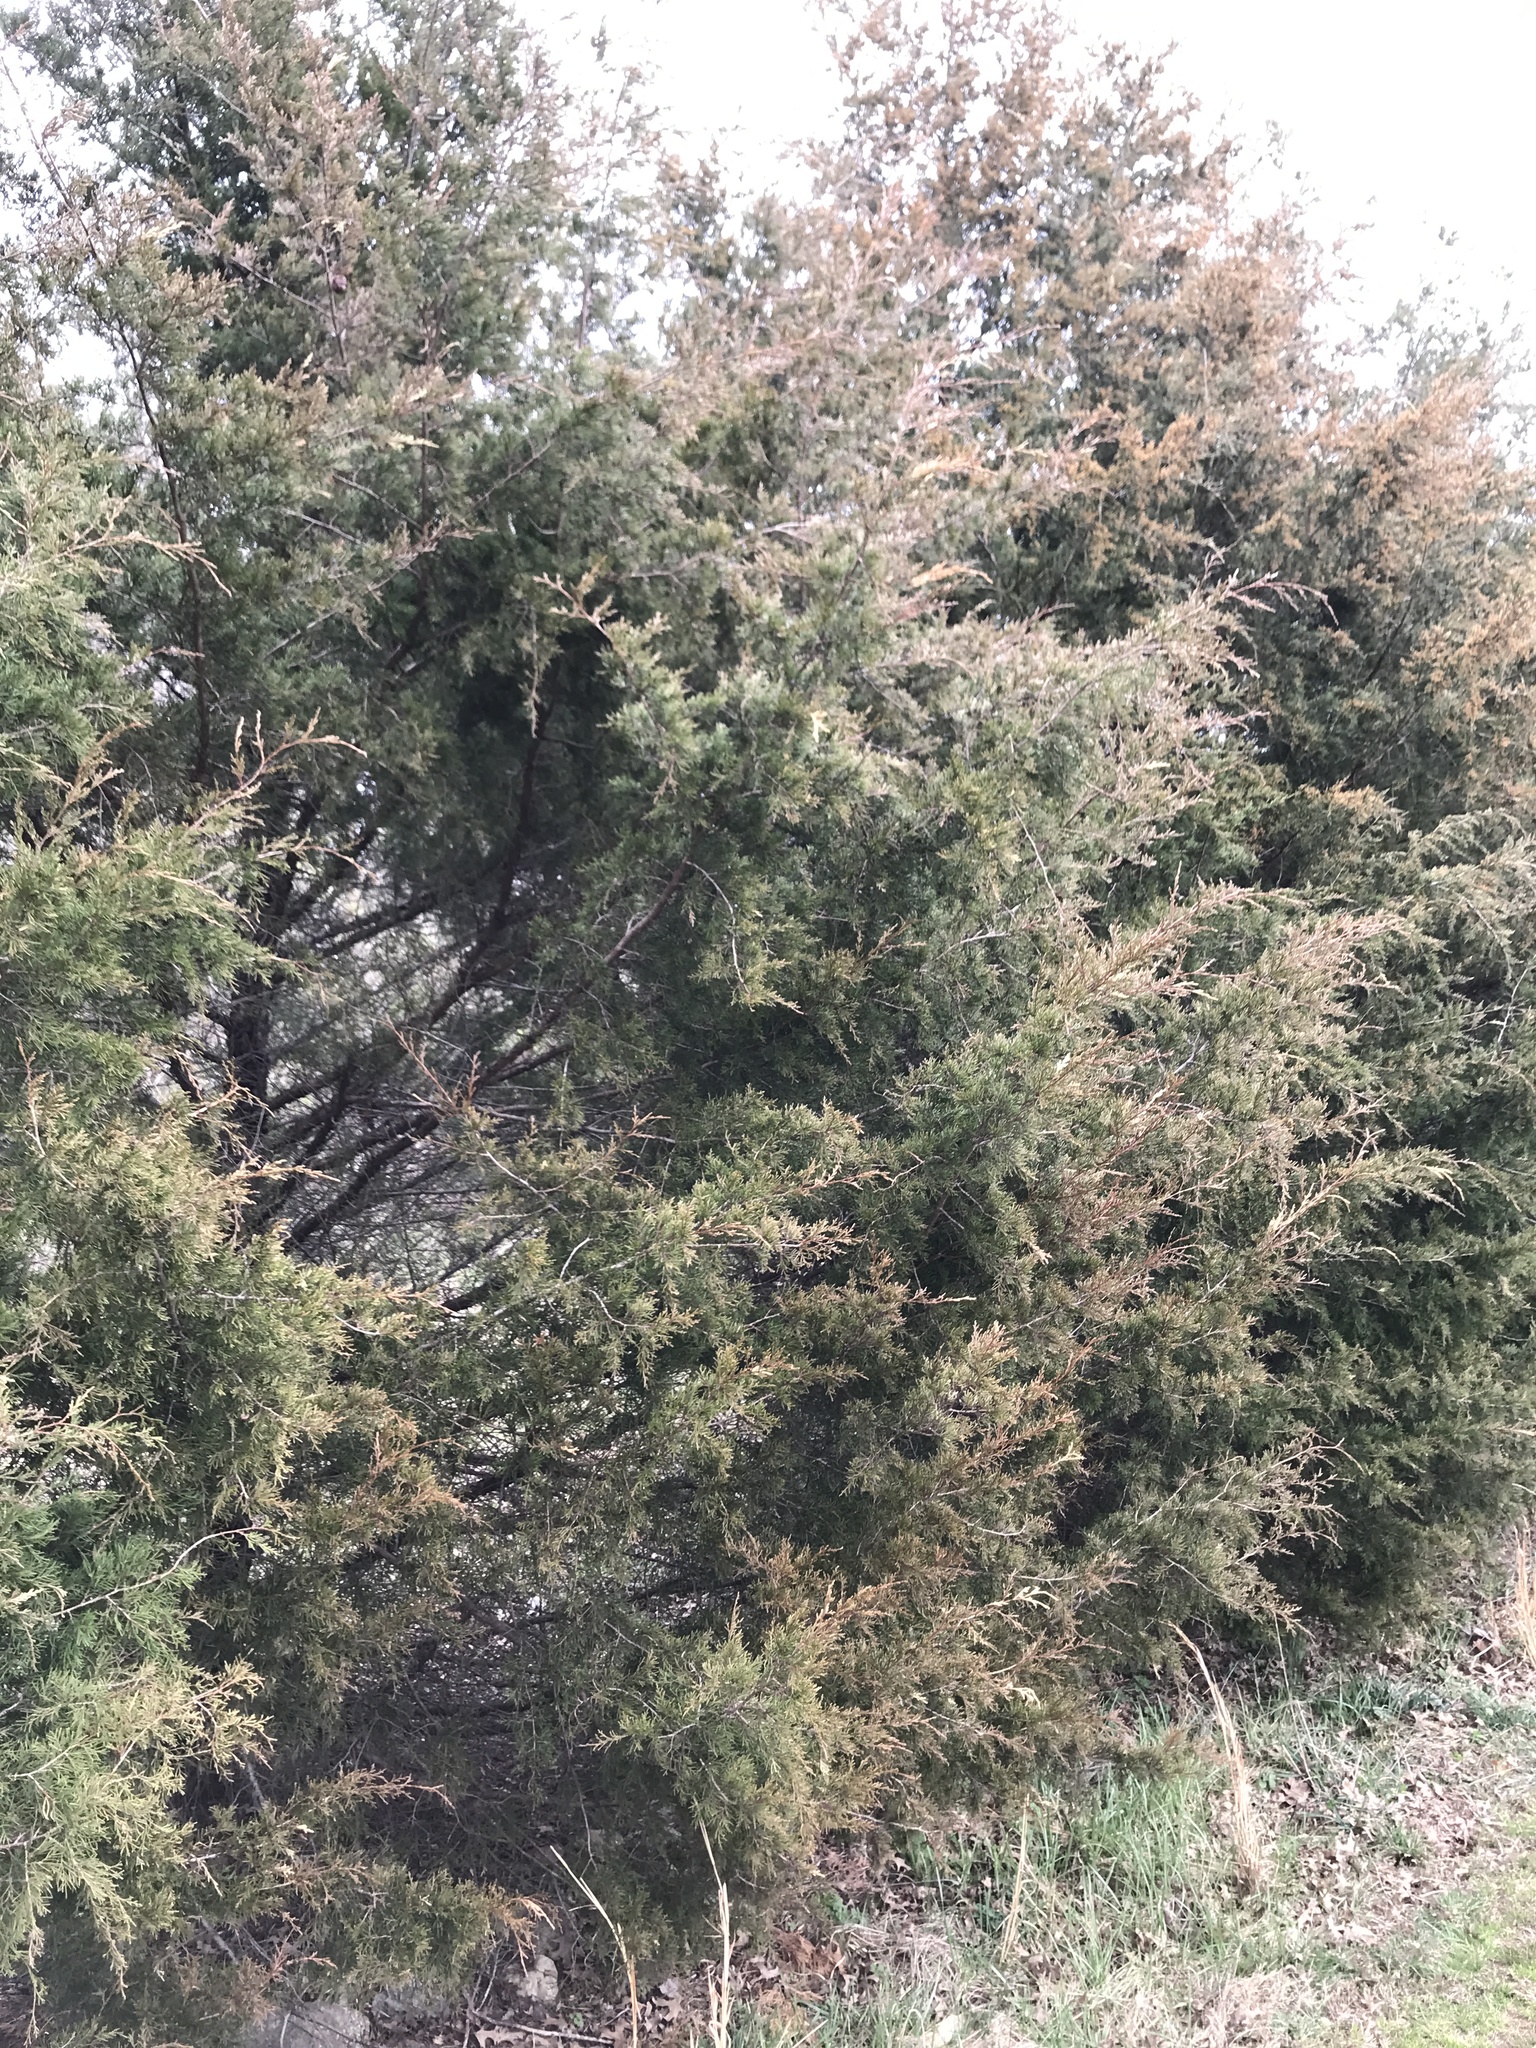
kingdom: Fungi
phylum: Basidiomycota
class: Pucciniomycetes
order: Pucciniales
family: Gymnosporangiaceae
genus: Gymnosporangium
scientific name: Gymnosporangium juniperi-virginianae
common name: Juniper-apple rust
